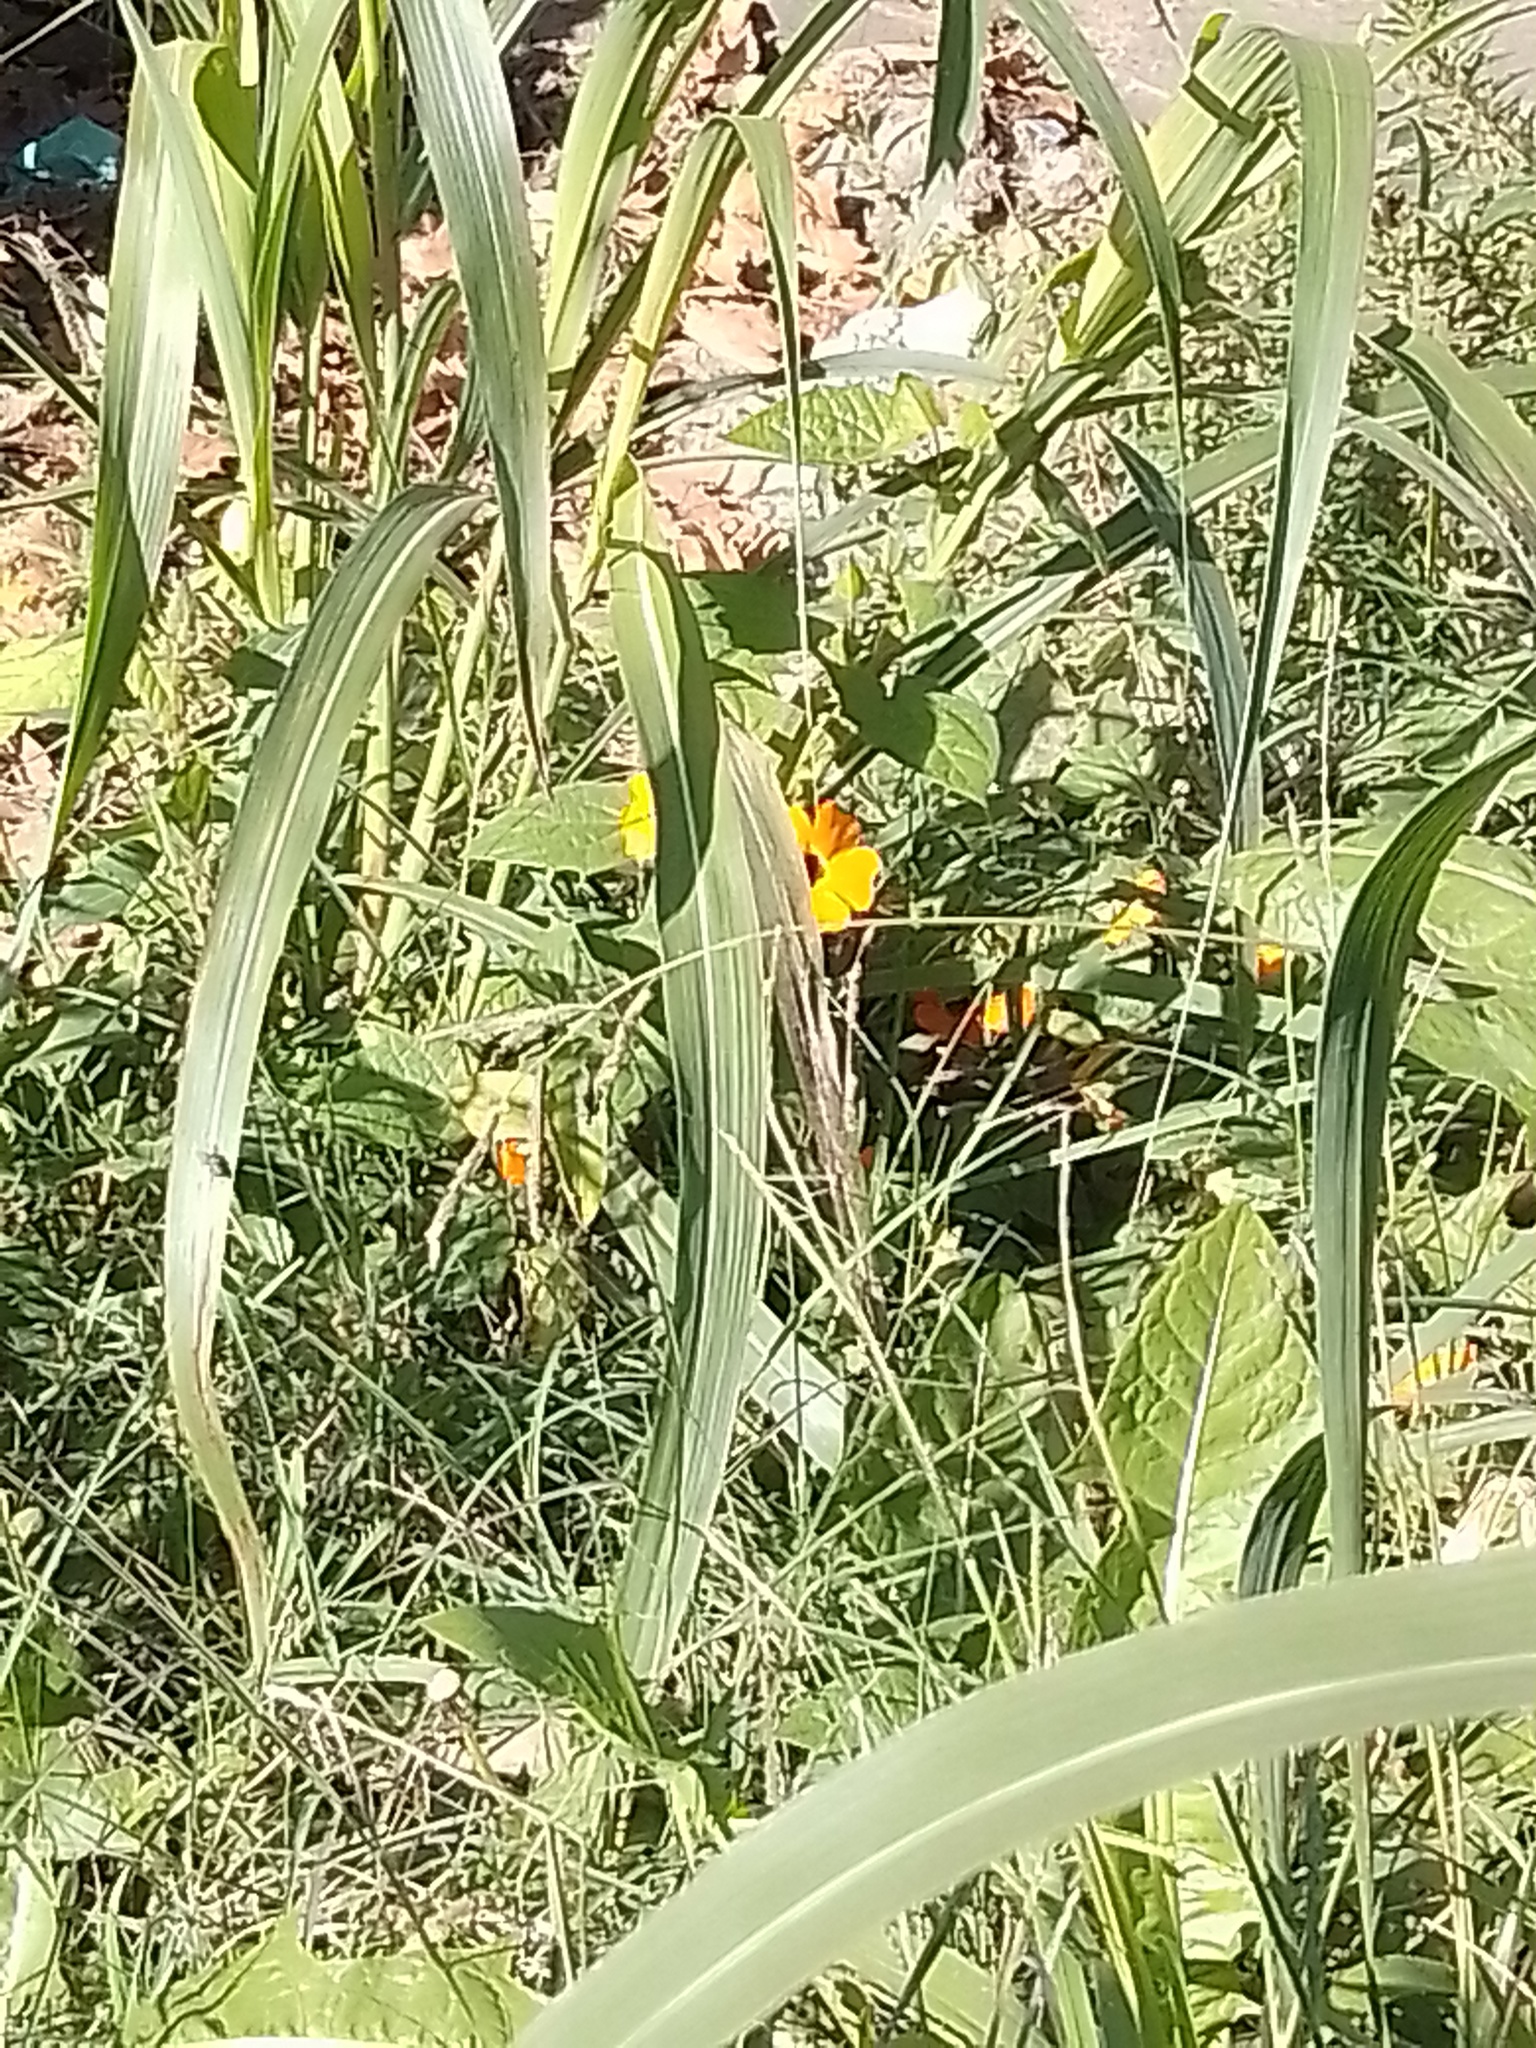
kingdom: Plantae
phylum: Tracheophyta
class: Magnoliopsida
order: Lamiales
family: Acanthaceae
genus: Thunbergia
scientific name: Thunbergia alata
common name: Blackeyed susan vine
